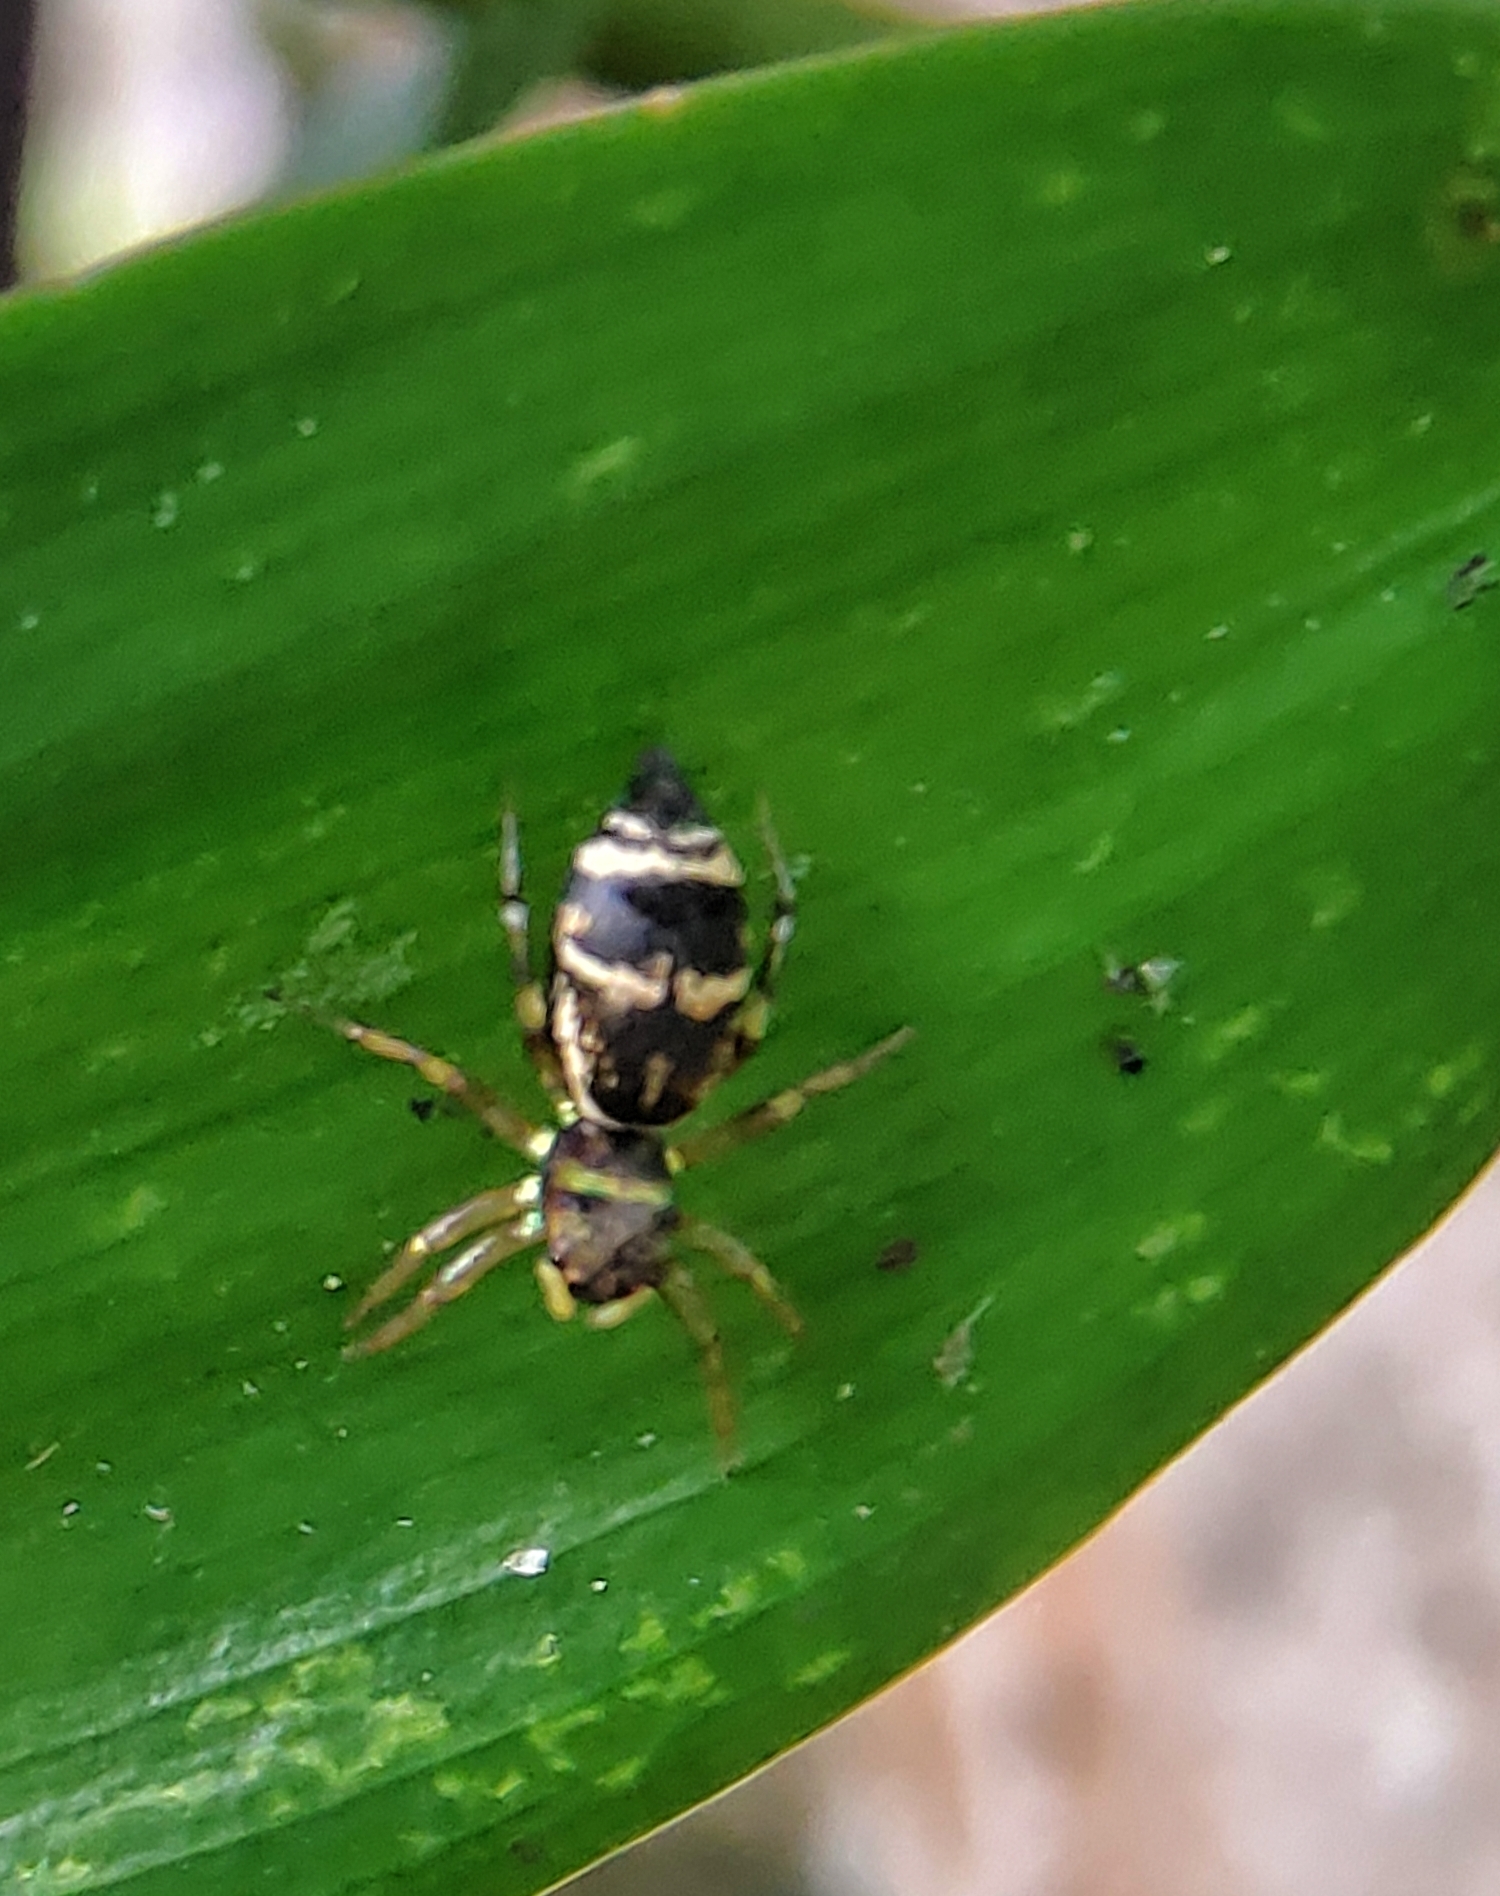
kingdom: Animalia
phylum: Arthropoda
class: Arachnida
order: Araneae
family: Salticidae
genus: Cosmophasis
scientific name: Cosmophasis thalassina
